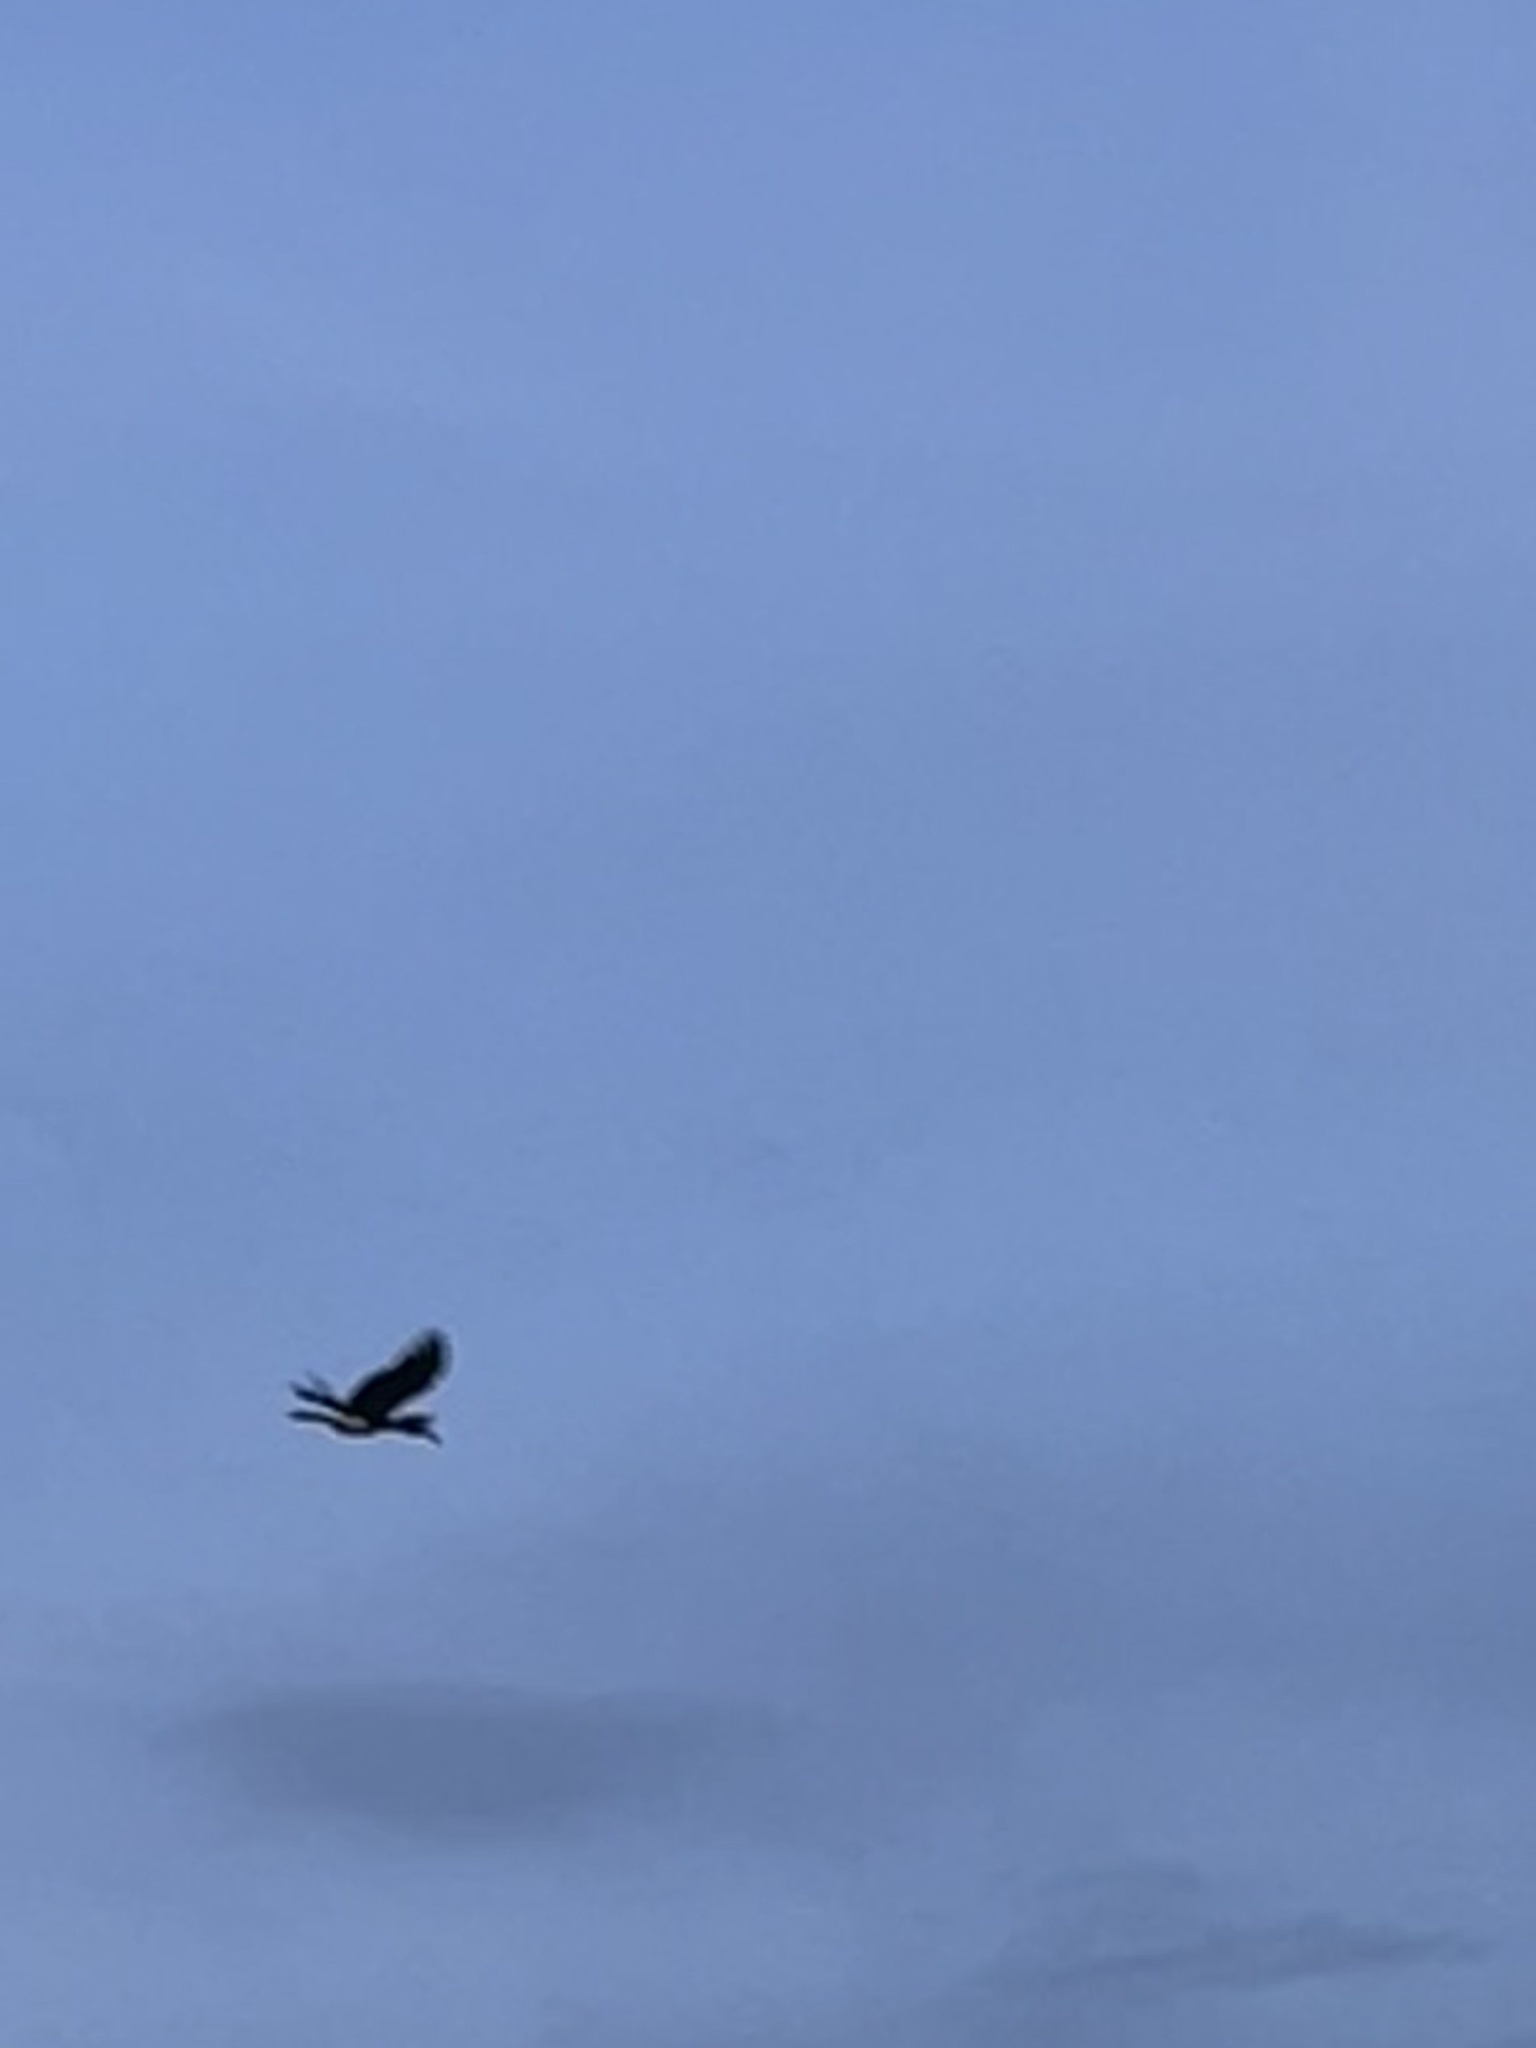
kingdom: Animalia
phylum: Chordata
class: Aves
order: Bucerotiformes
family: Bucerotidae
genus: Buceros
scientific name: Buceros rhinoceros
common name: Rhinoceros hornbill
